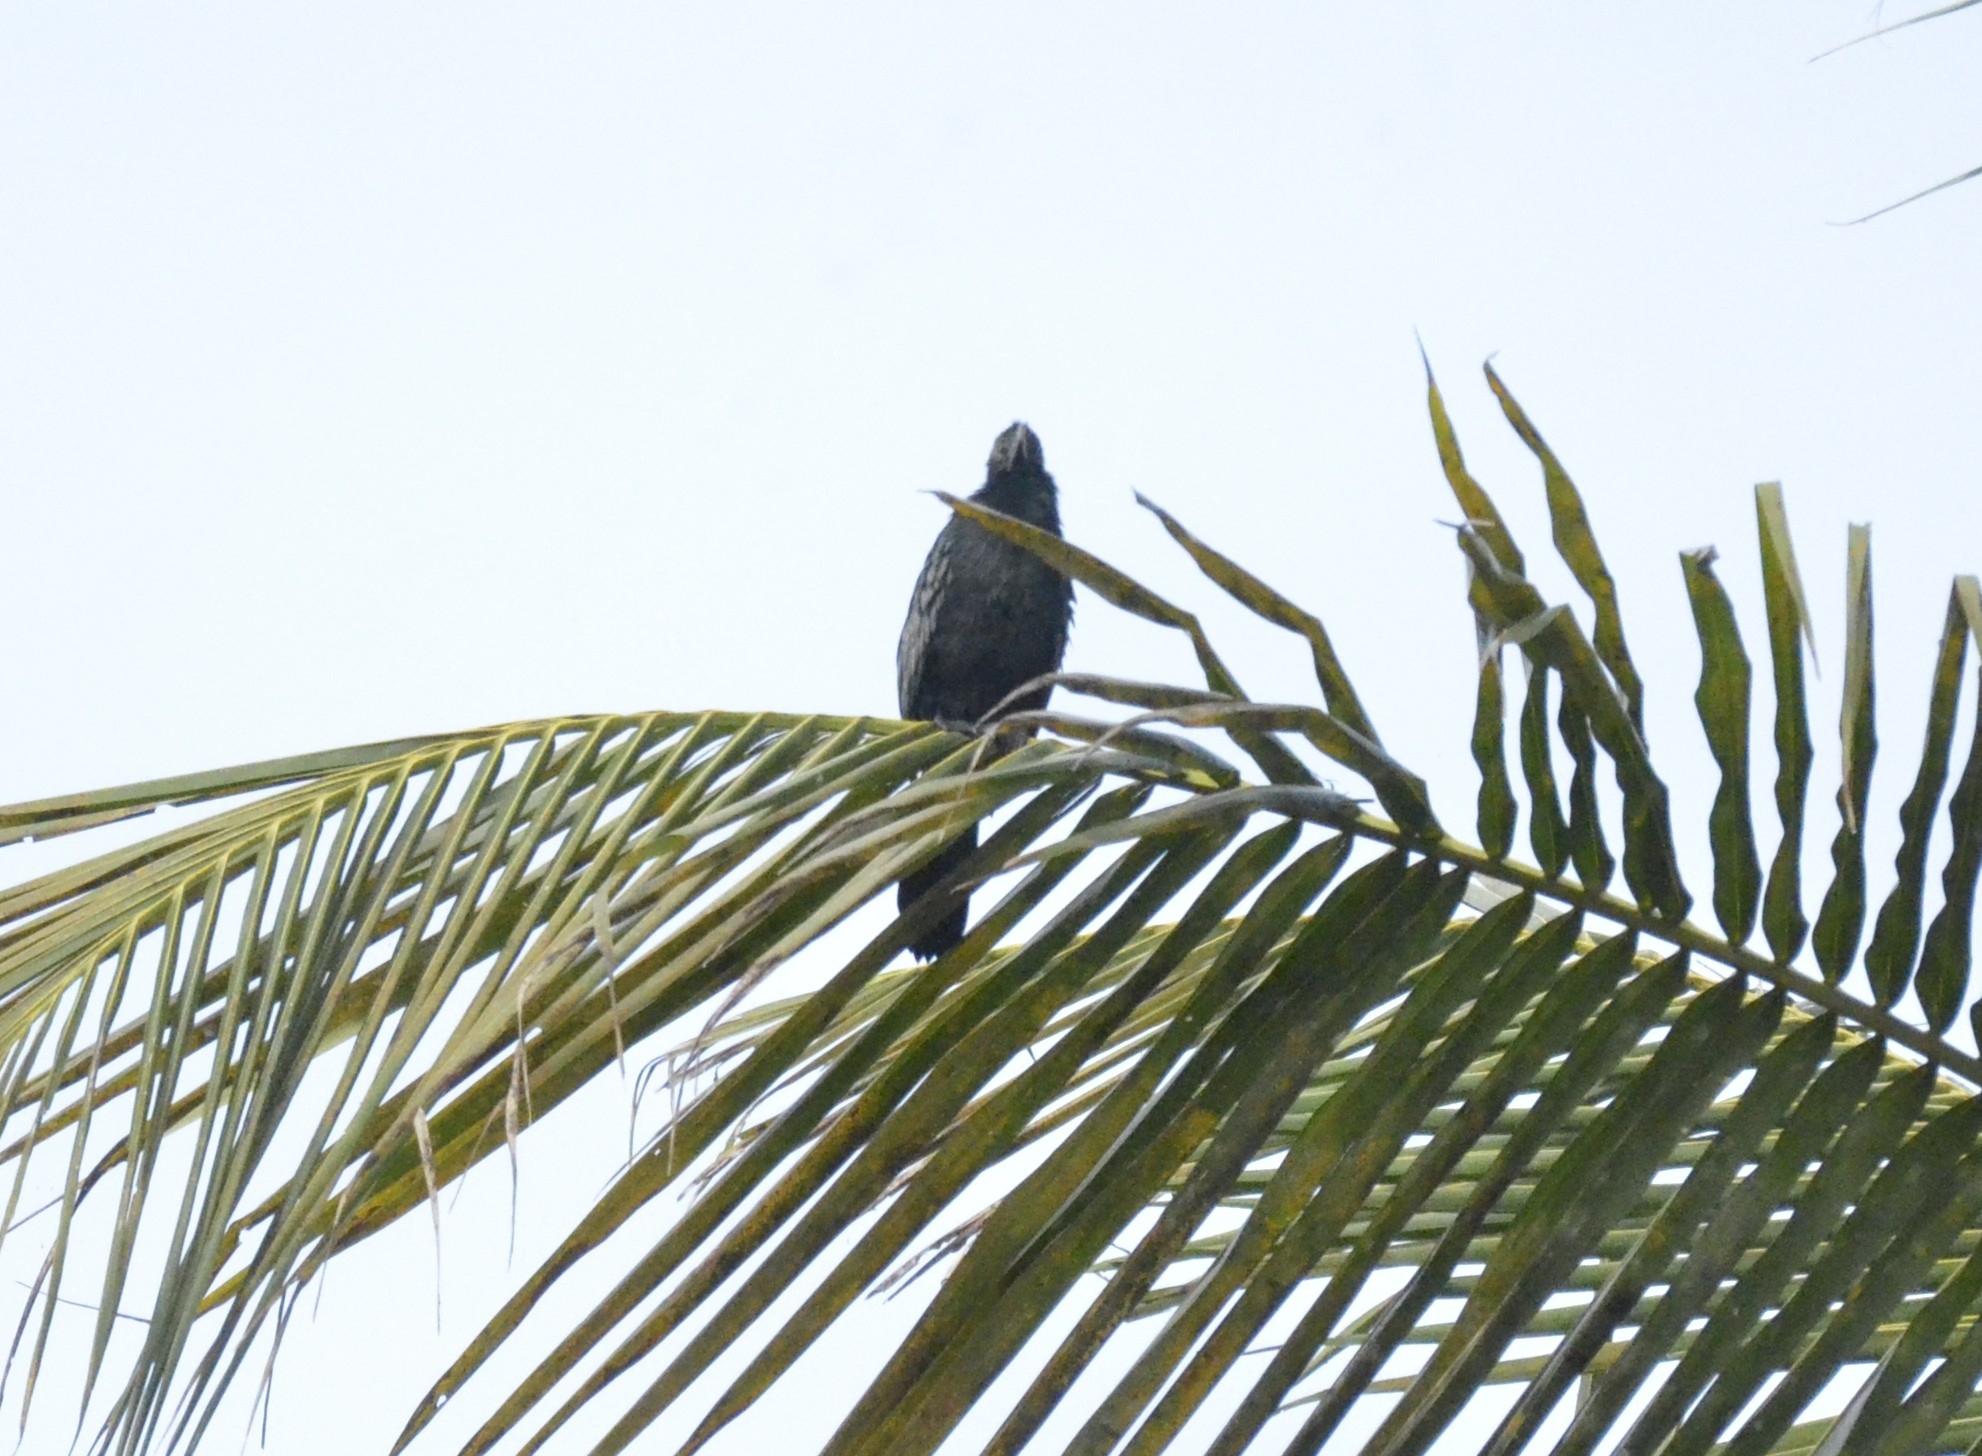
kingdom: Animalia
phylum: Chordata
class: Aves
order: Suliformes
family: Phalacrocoracidae
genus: Microcarbo
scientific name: Microcarbo niger
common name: Little cormorant
